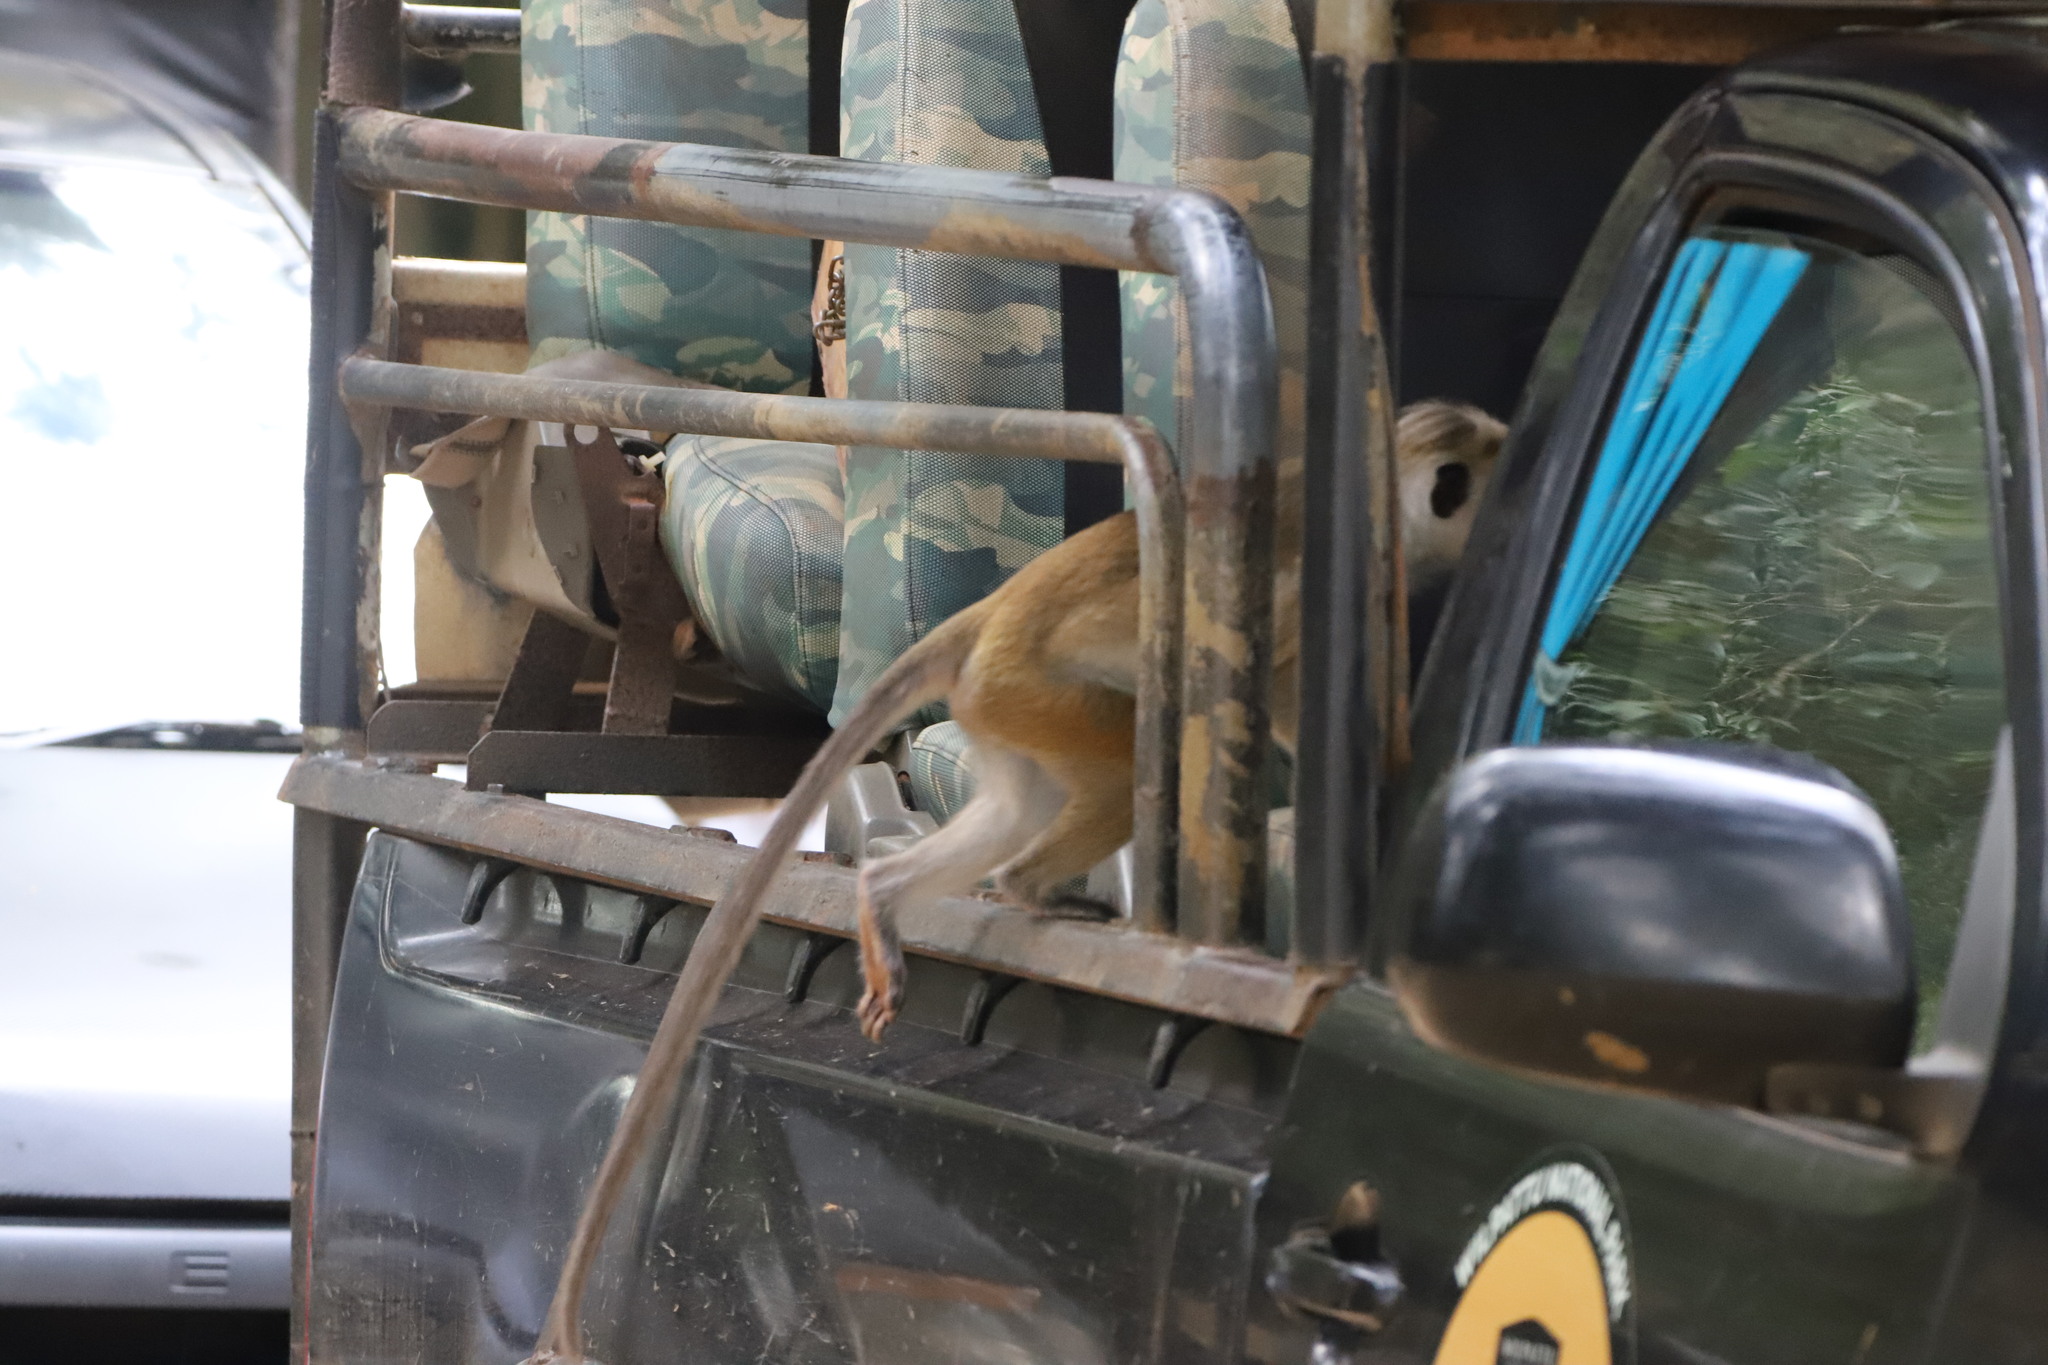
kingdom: Animalia
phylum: Chordata
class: Mammalia
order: Primates
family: Cercopithecidae
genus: Macaca
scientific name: Macaca sinica
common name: Toque macaque
